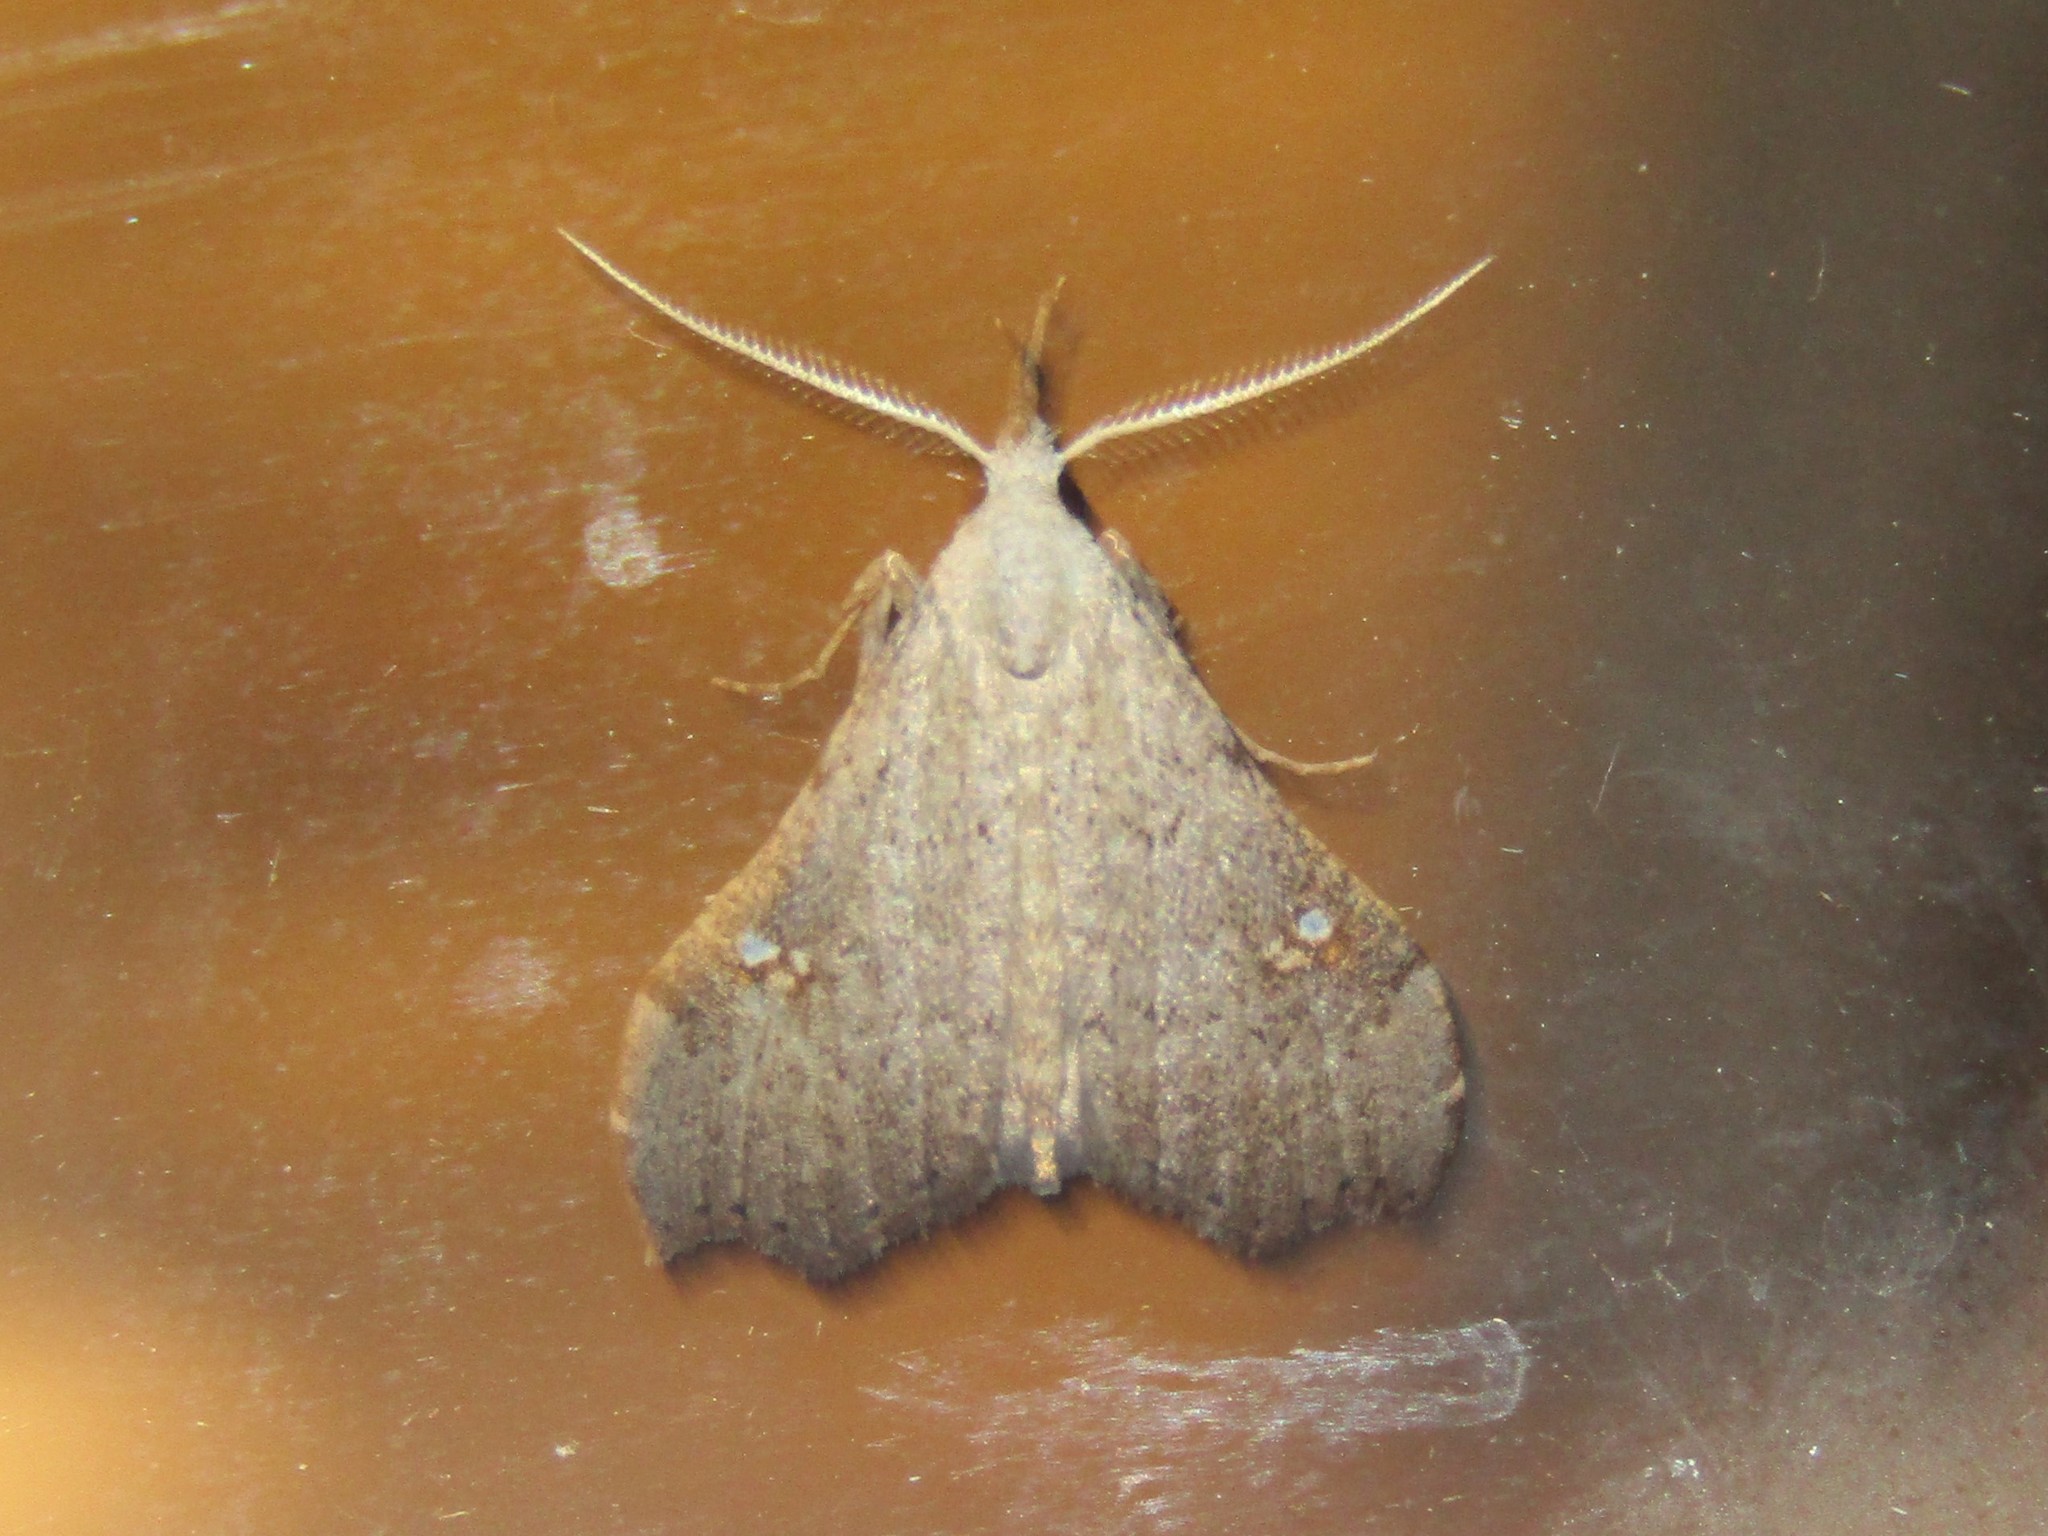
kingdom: Animalia
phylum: Arthropoda
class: Insecta
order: Lepidoptera
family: Erebidae
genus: Redectis
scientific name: Redectis vitrea
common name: White-spotted redectis
